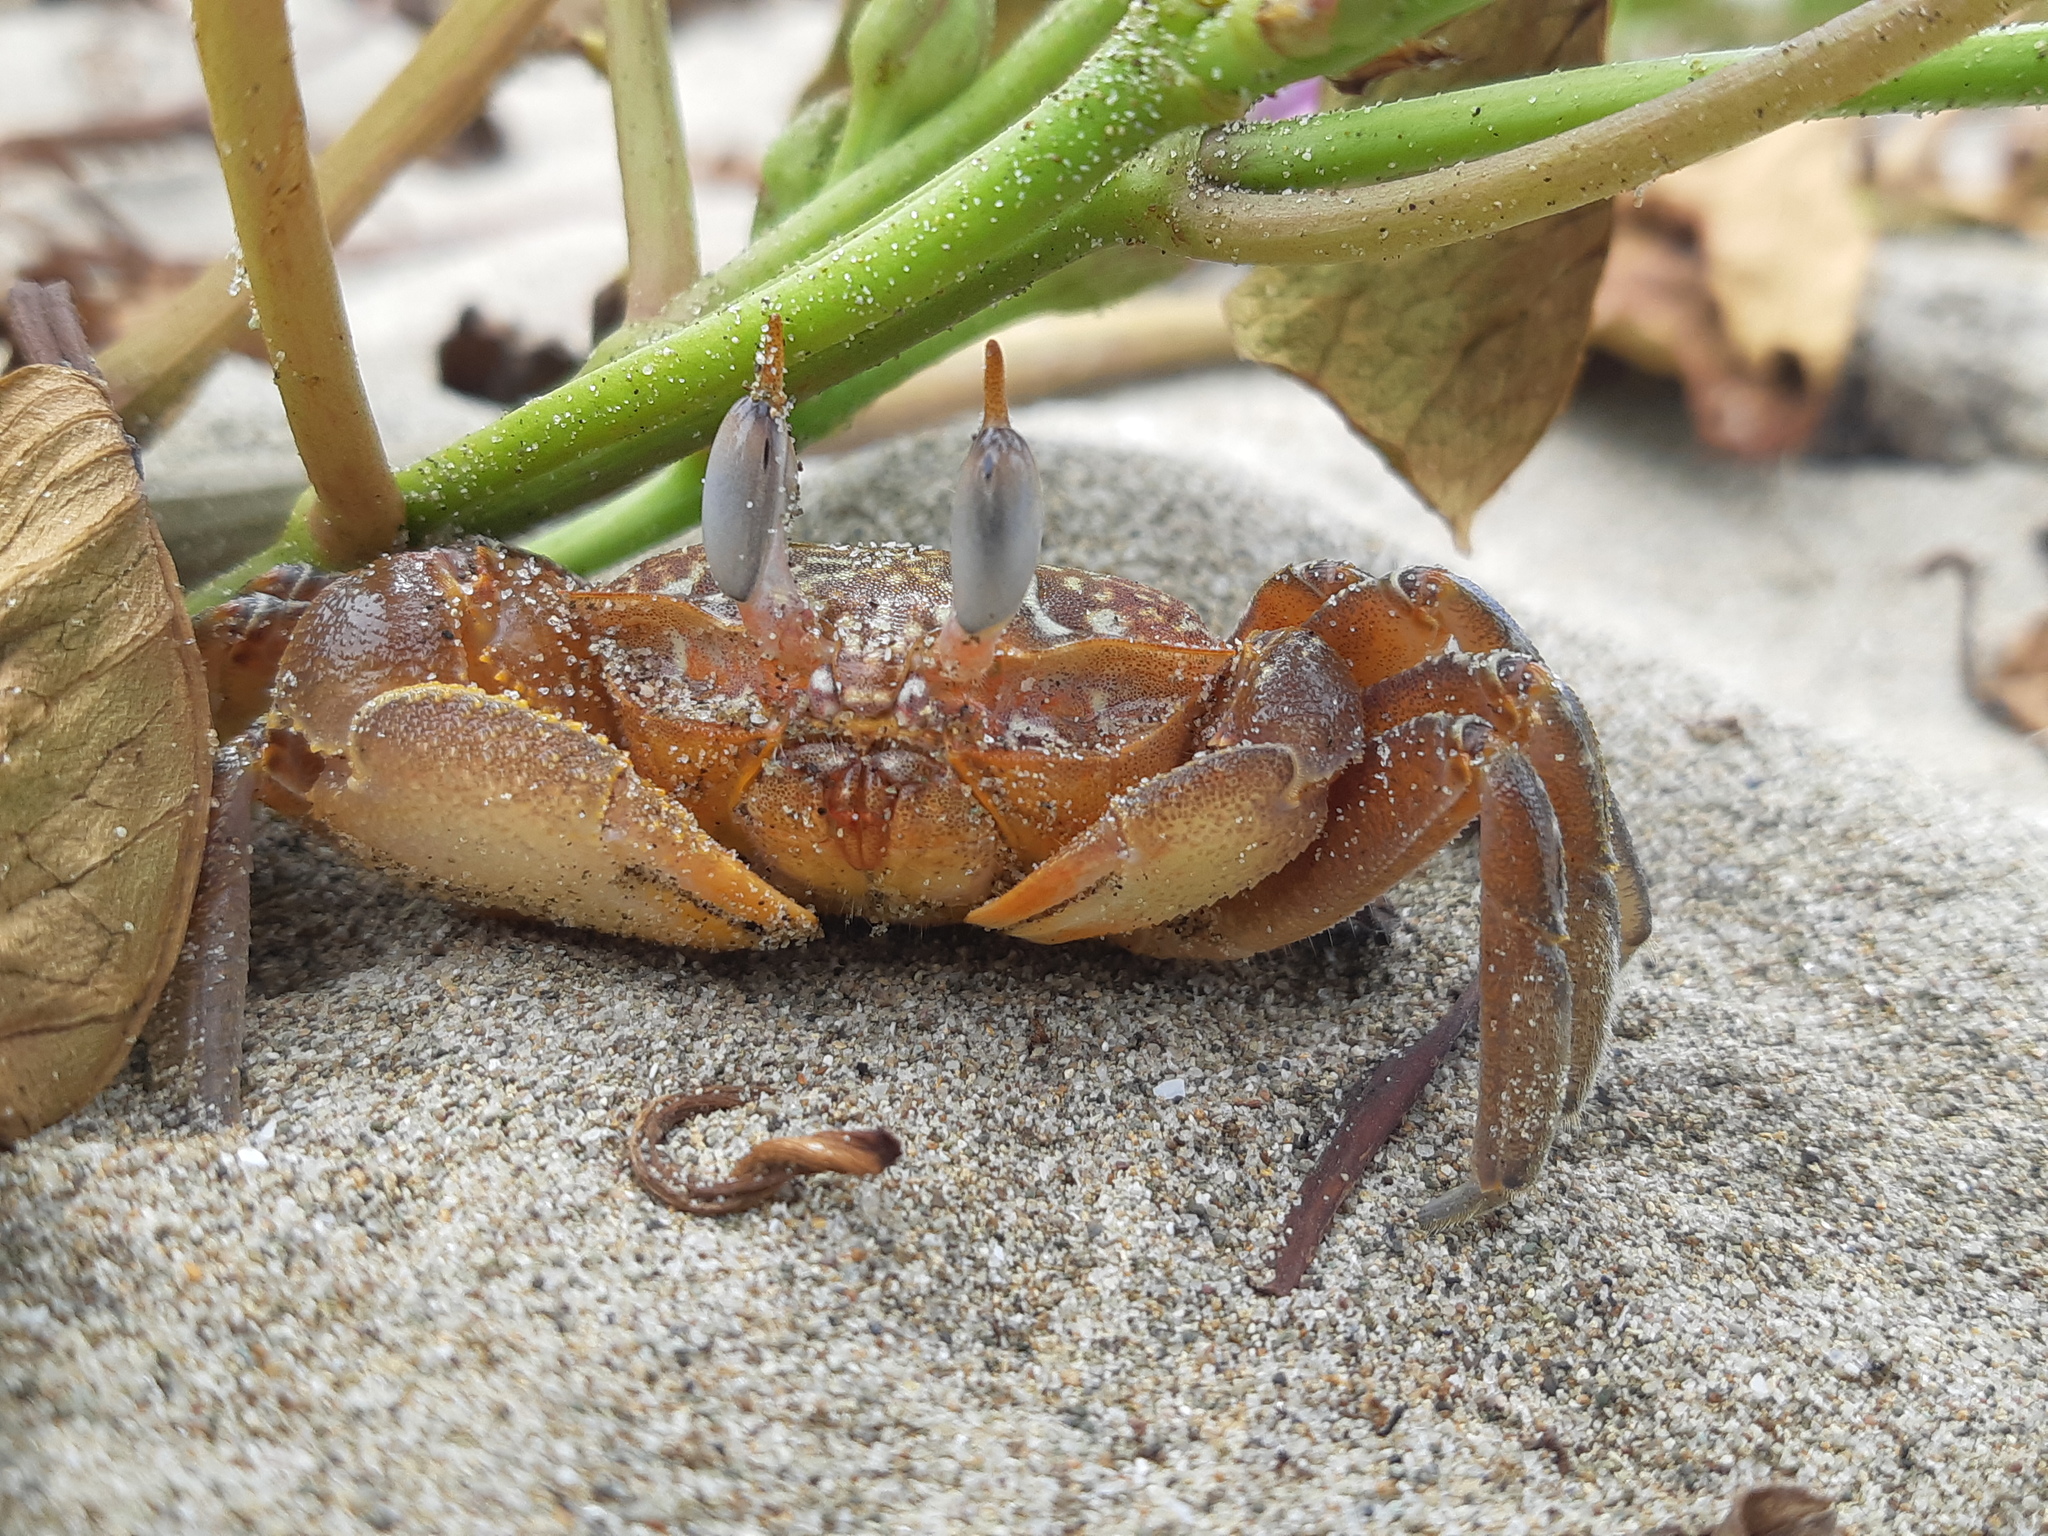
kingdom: Animalia
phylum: Arthropoda
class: Malacostraca
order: Decapoda
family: Ocypodidae
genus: Ocypode
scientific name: Ocypode gaudichaudii
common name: Pacific ghost crab
